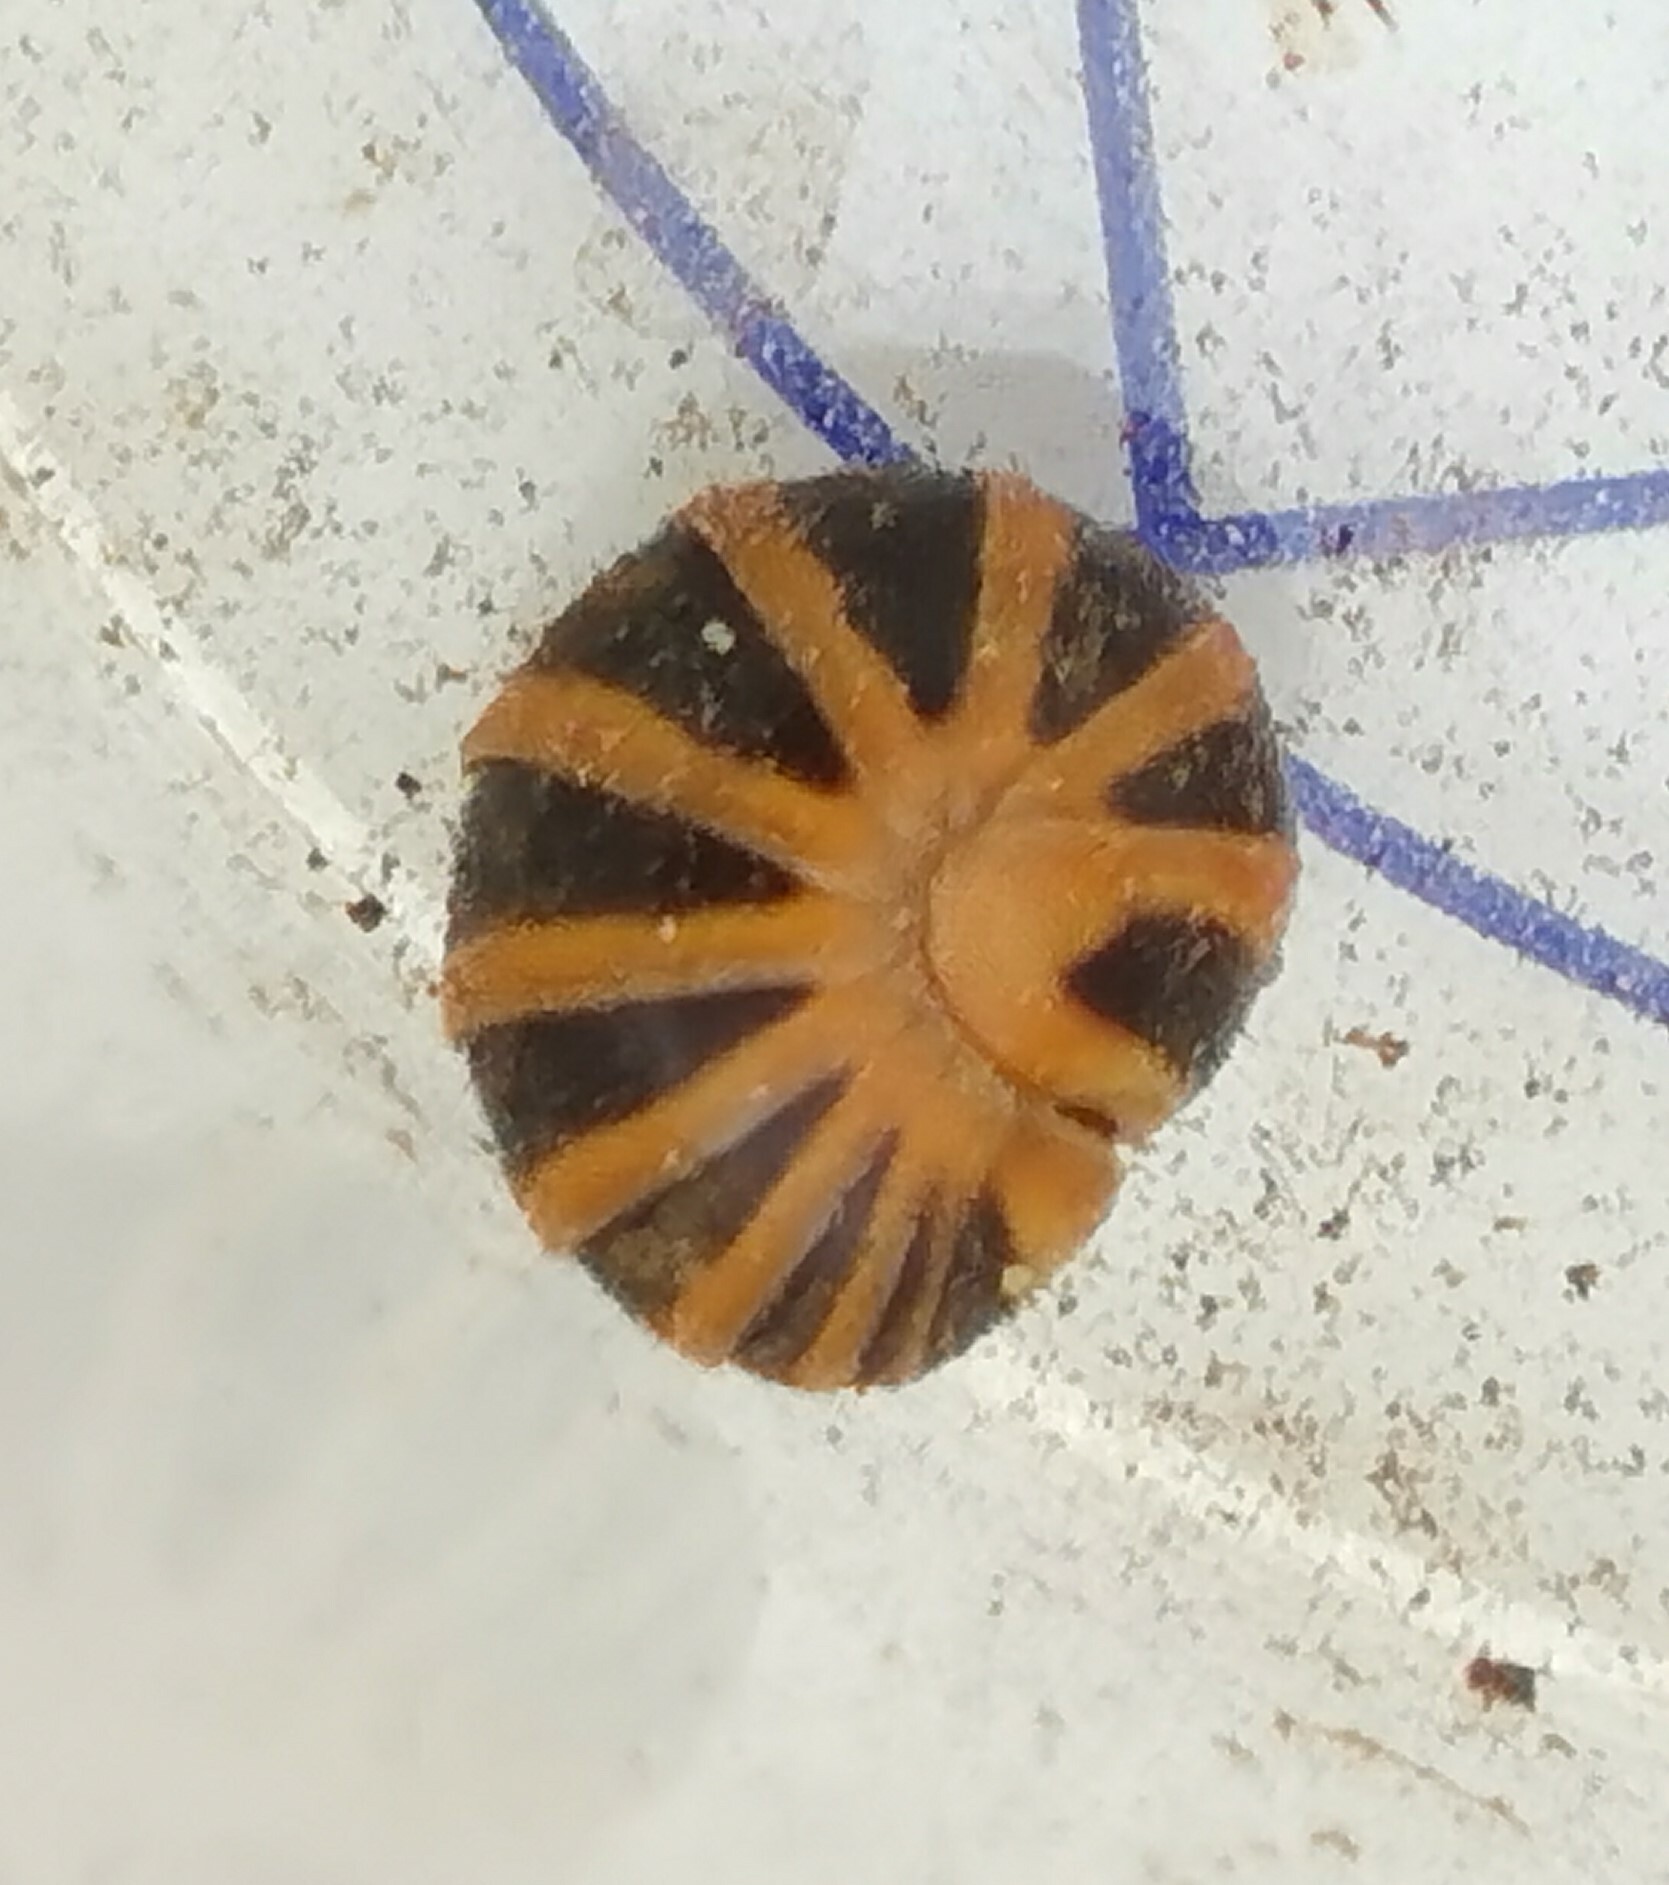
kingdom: Animalia
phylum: Arthropoda
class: Diplopoda
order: Glomerida
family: Glomeridae
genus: Glomeris
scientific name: Glomeris annulata
